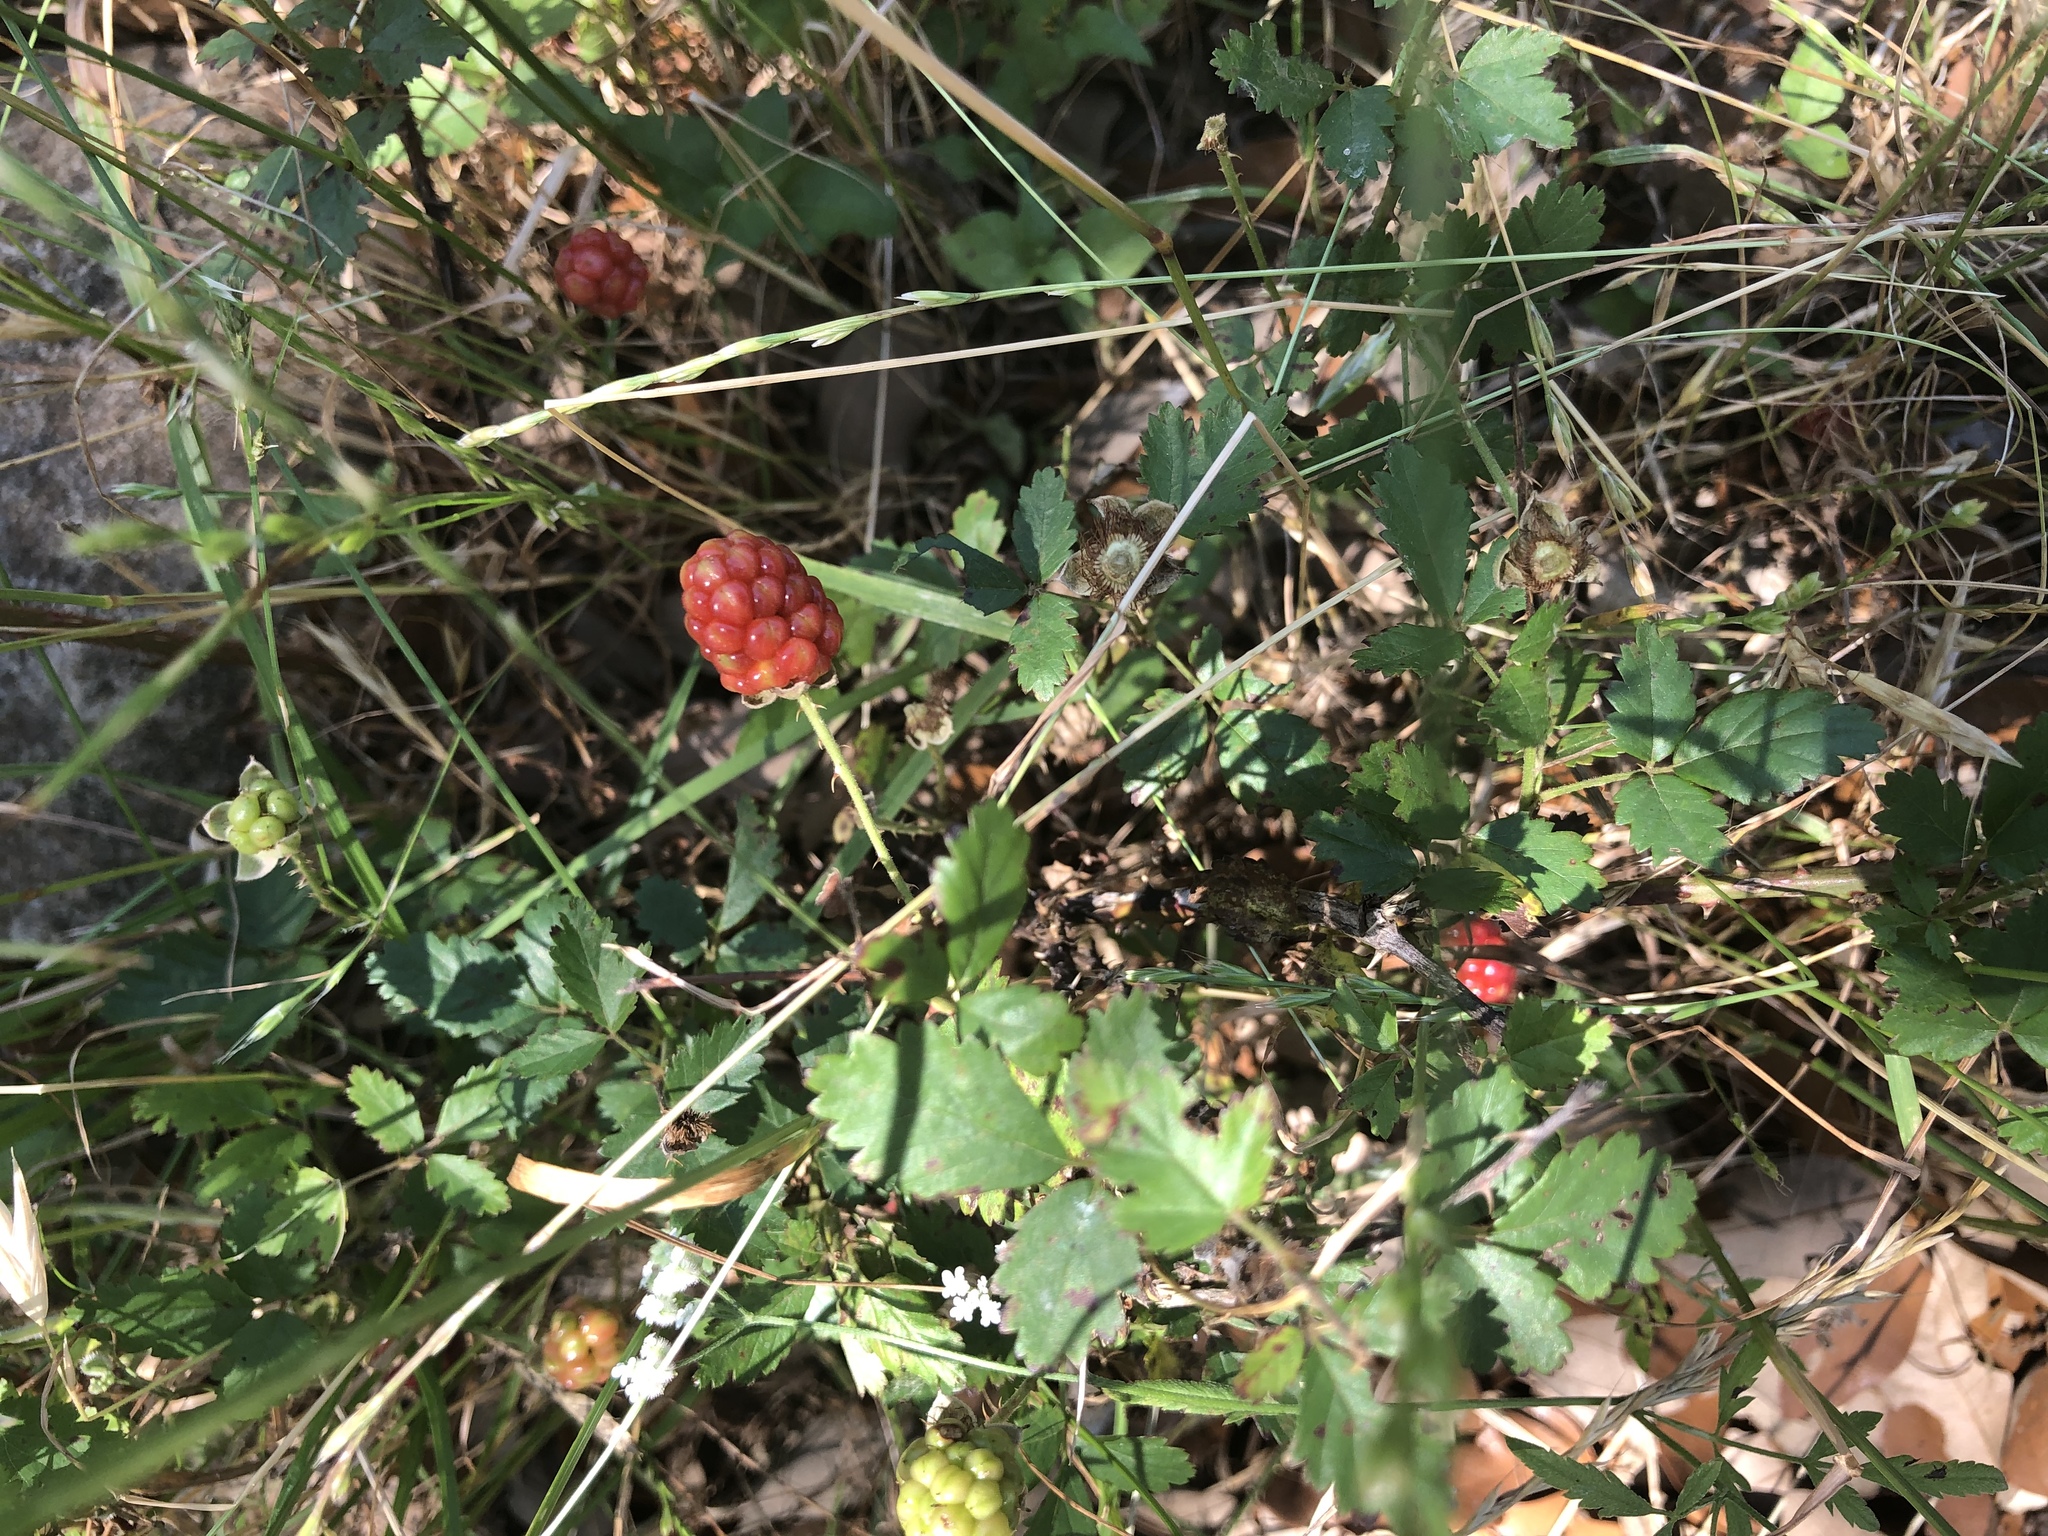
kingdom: Plantae
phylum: Tracheophyta
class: Magnoliopsida
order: Rosales
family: Rosaceae
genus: Rubus
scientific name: Rubus trivialis
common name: Southern dewberry
